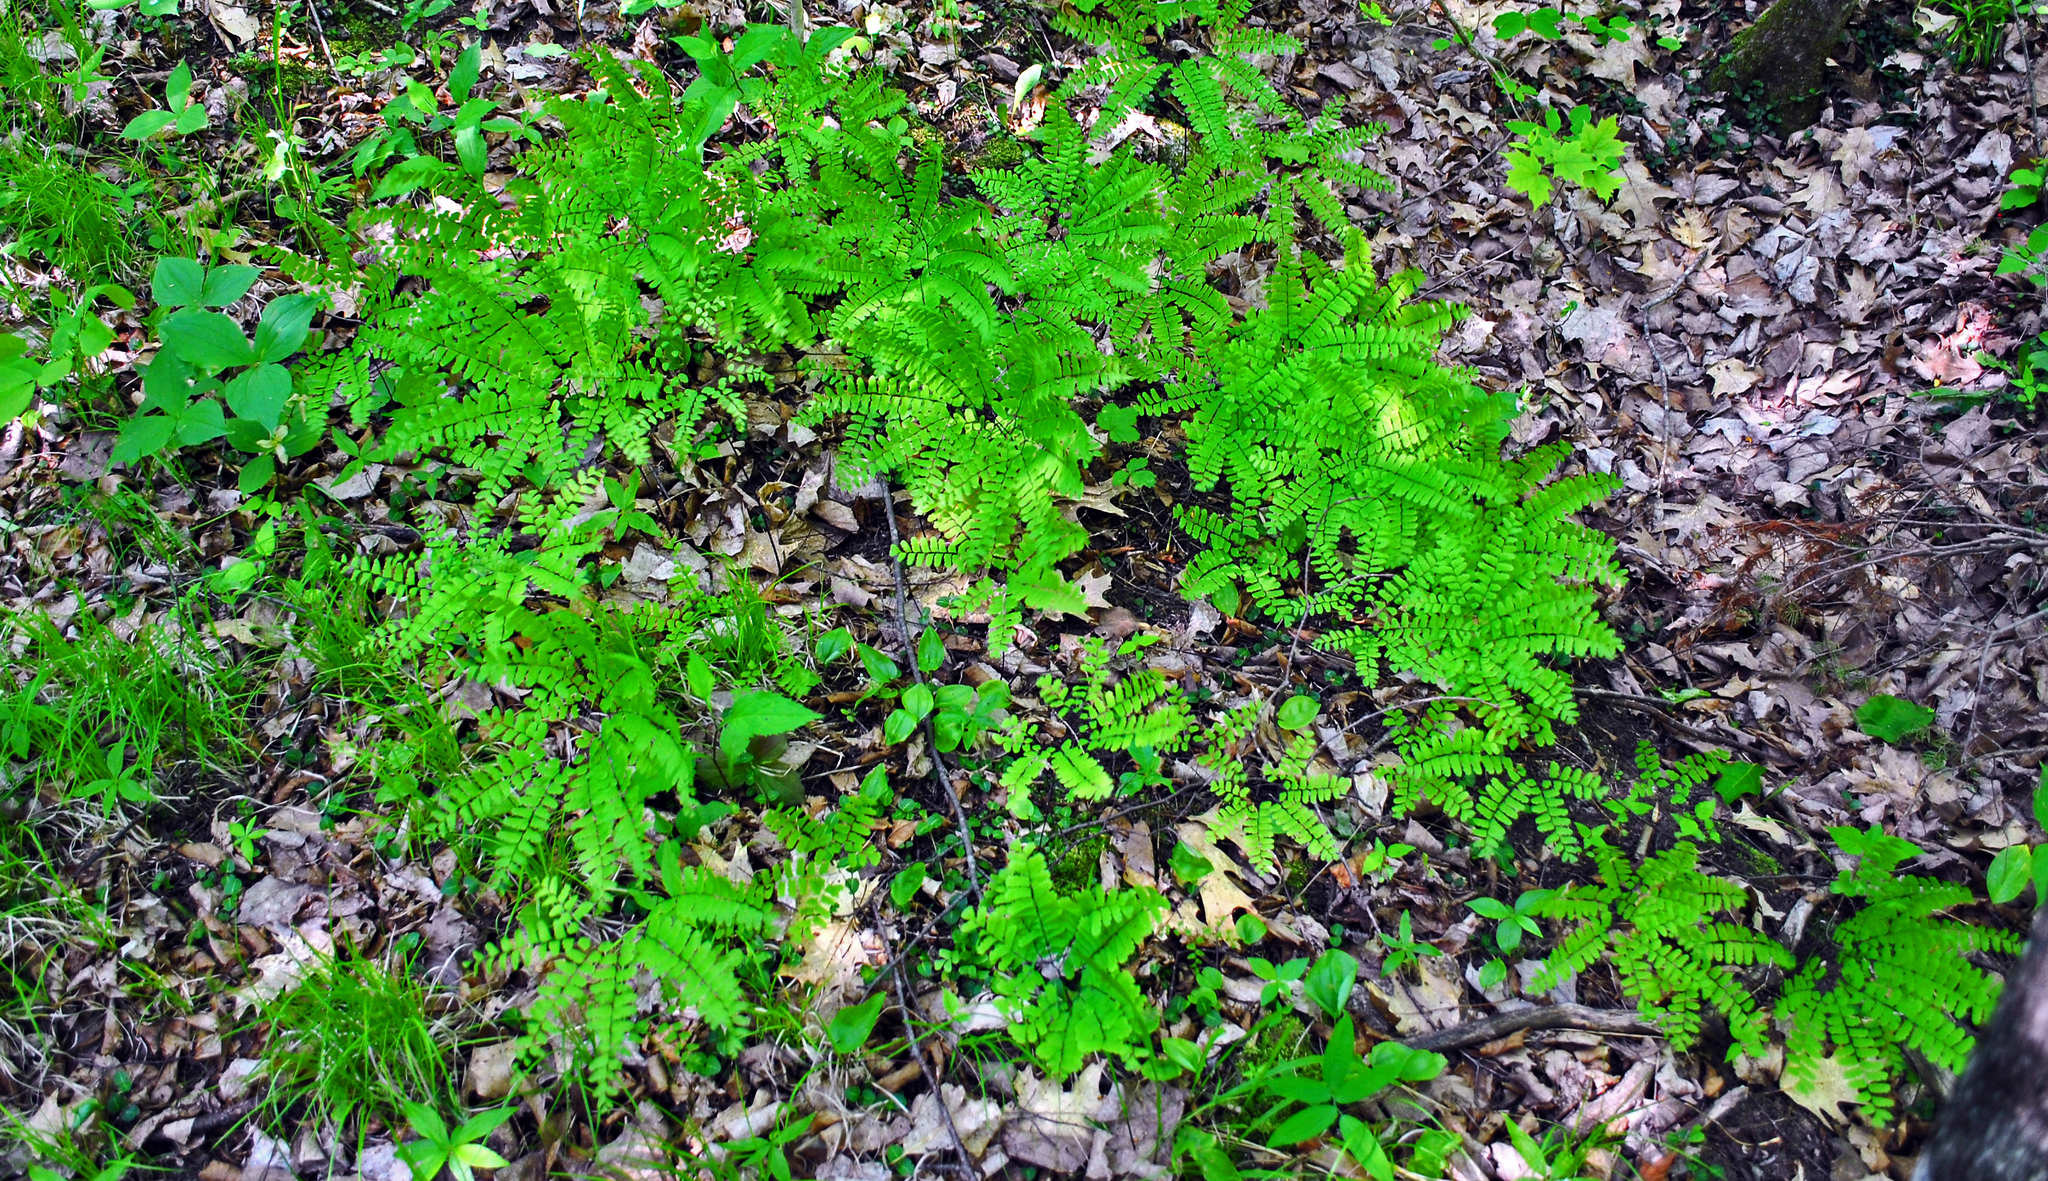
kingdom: Plantae
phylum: Tracheophyta
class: Polypodiopsida
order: Polypodiales
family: Pteridaceae
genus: Adiantum
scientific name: Adiantum pedatum
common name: Five-finger fern
